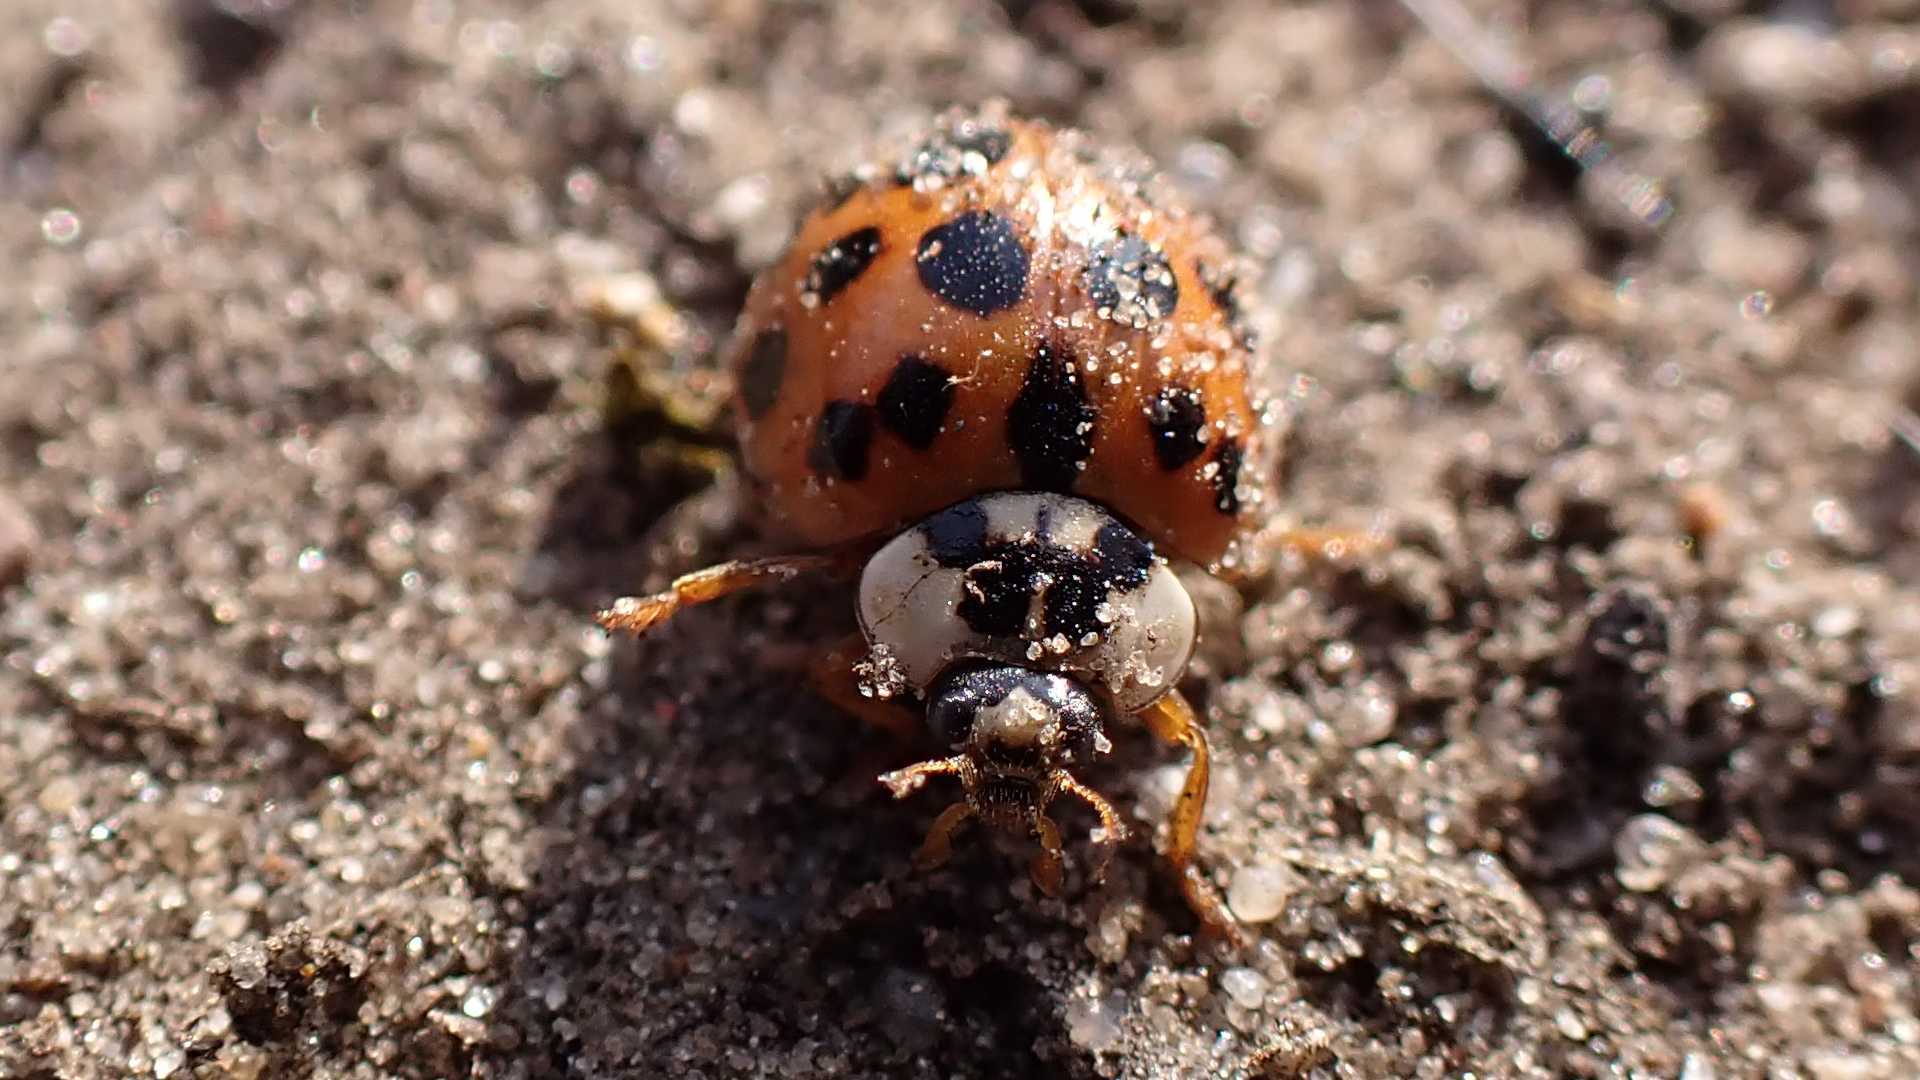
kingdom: Animalia
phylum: Arthropoda
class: Insecta
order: Coleoptera
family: Coccinellidae
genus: Harmonia
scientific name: Harmonia axyridis
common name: Harlequin ladybird
